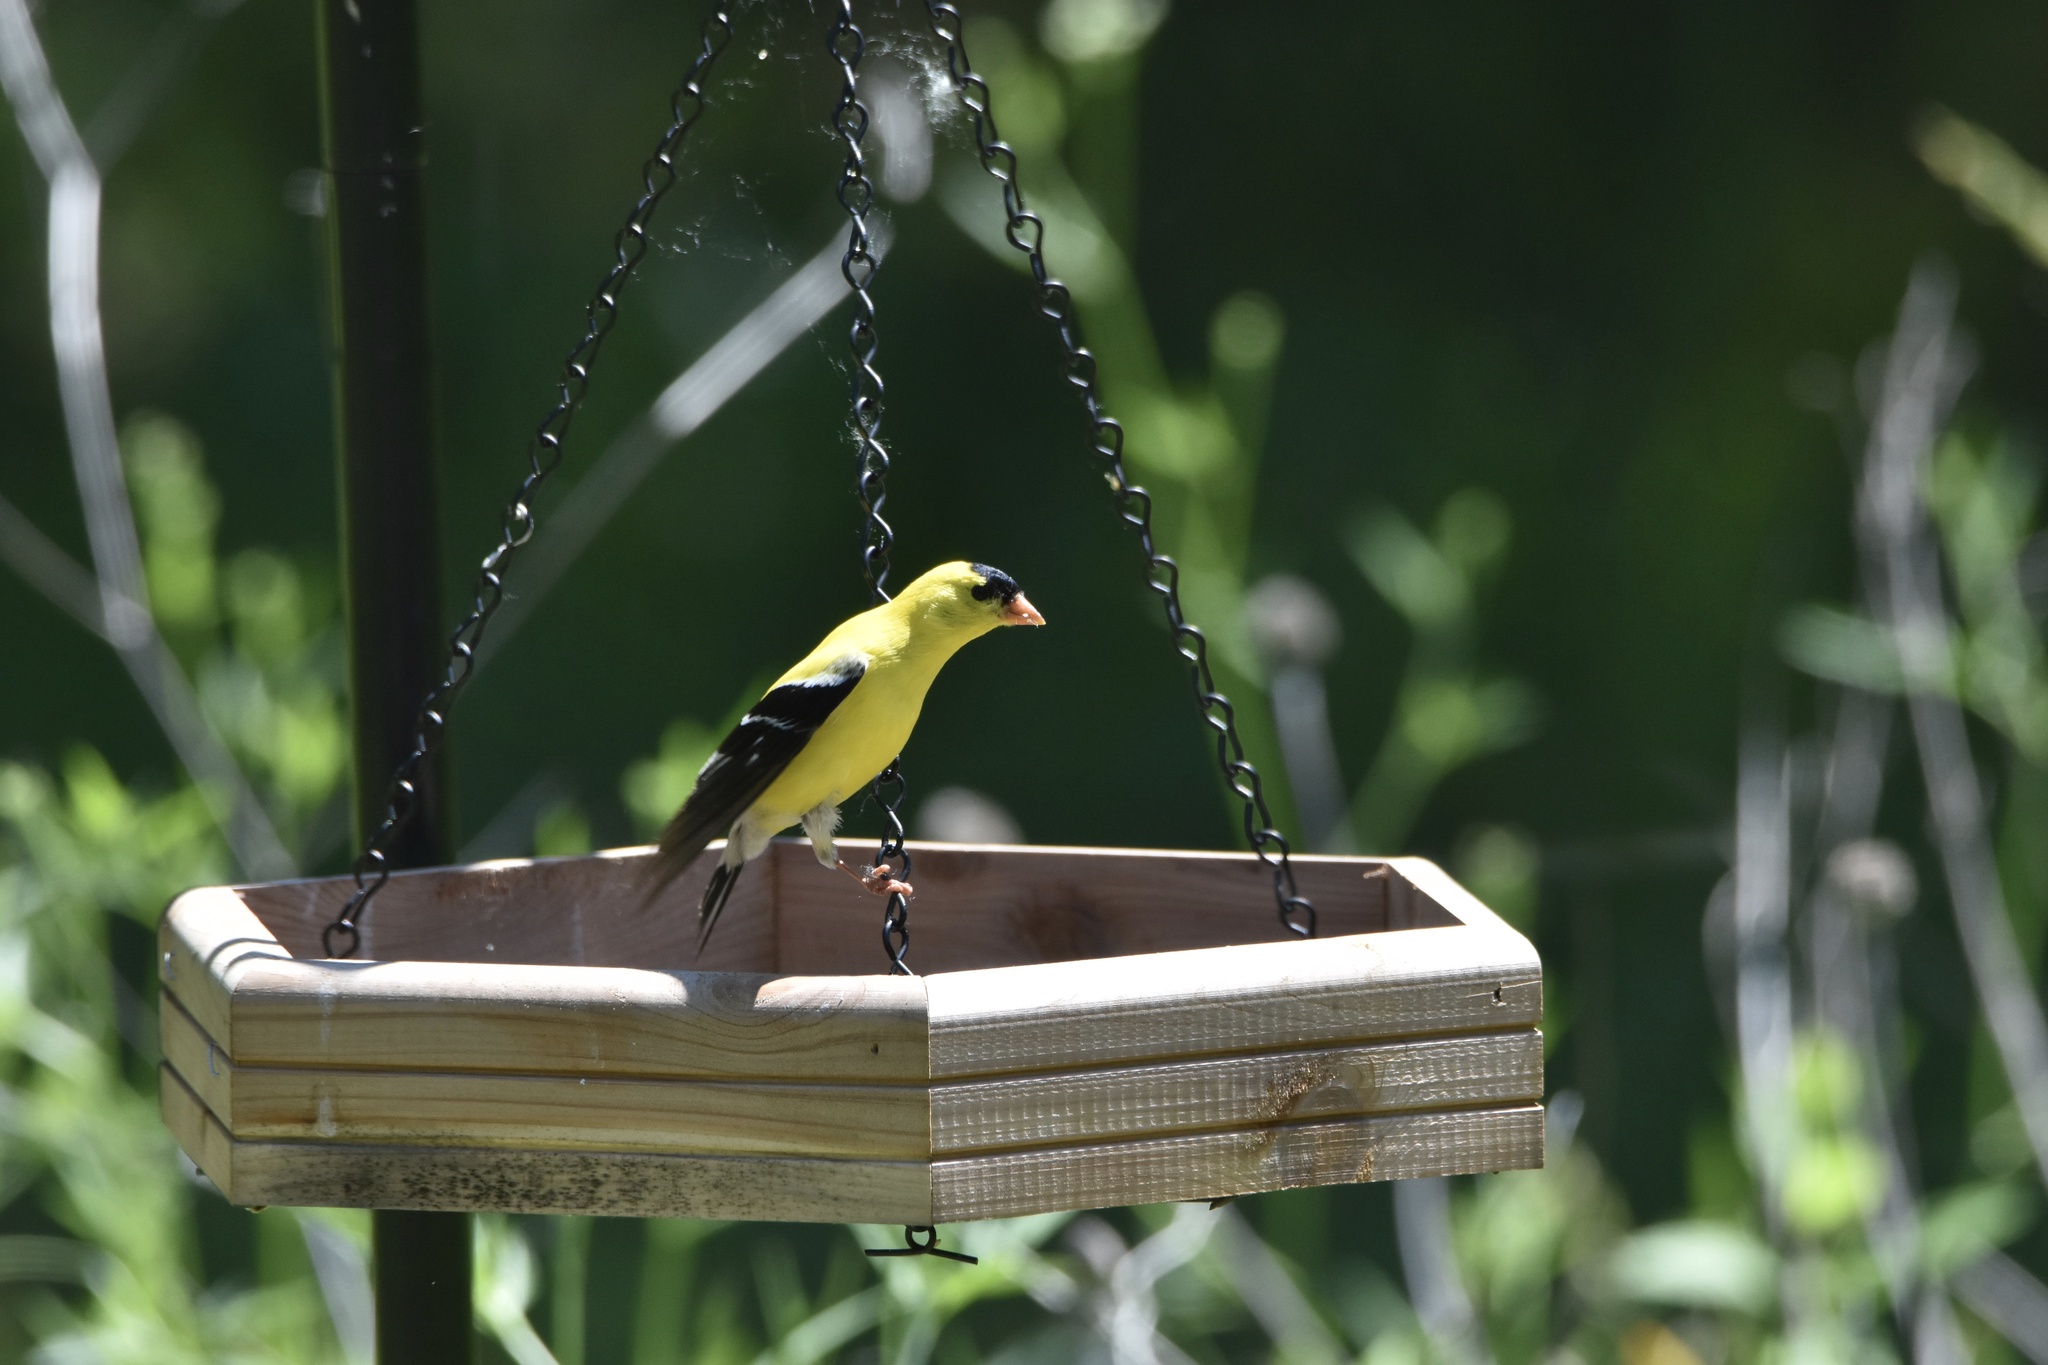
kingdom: Animalia
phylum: Chordata
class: Aves
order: Passeriformes
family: Fringillidae
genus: Spinus
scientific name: Spinus tristis
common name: American goldfinch
